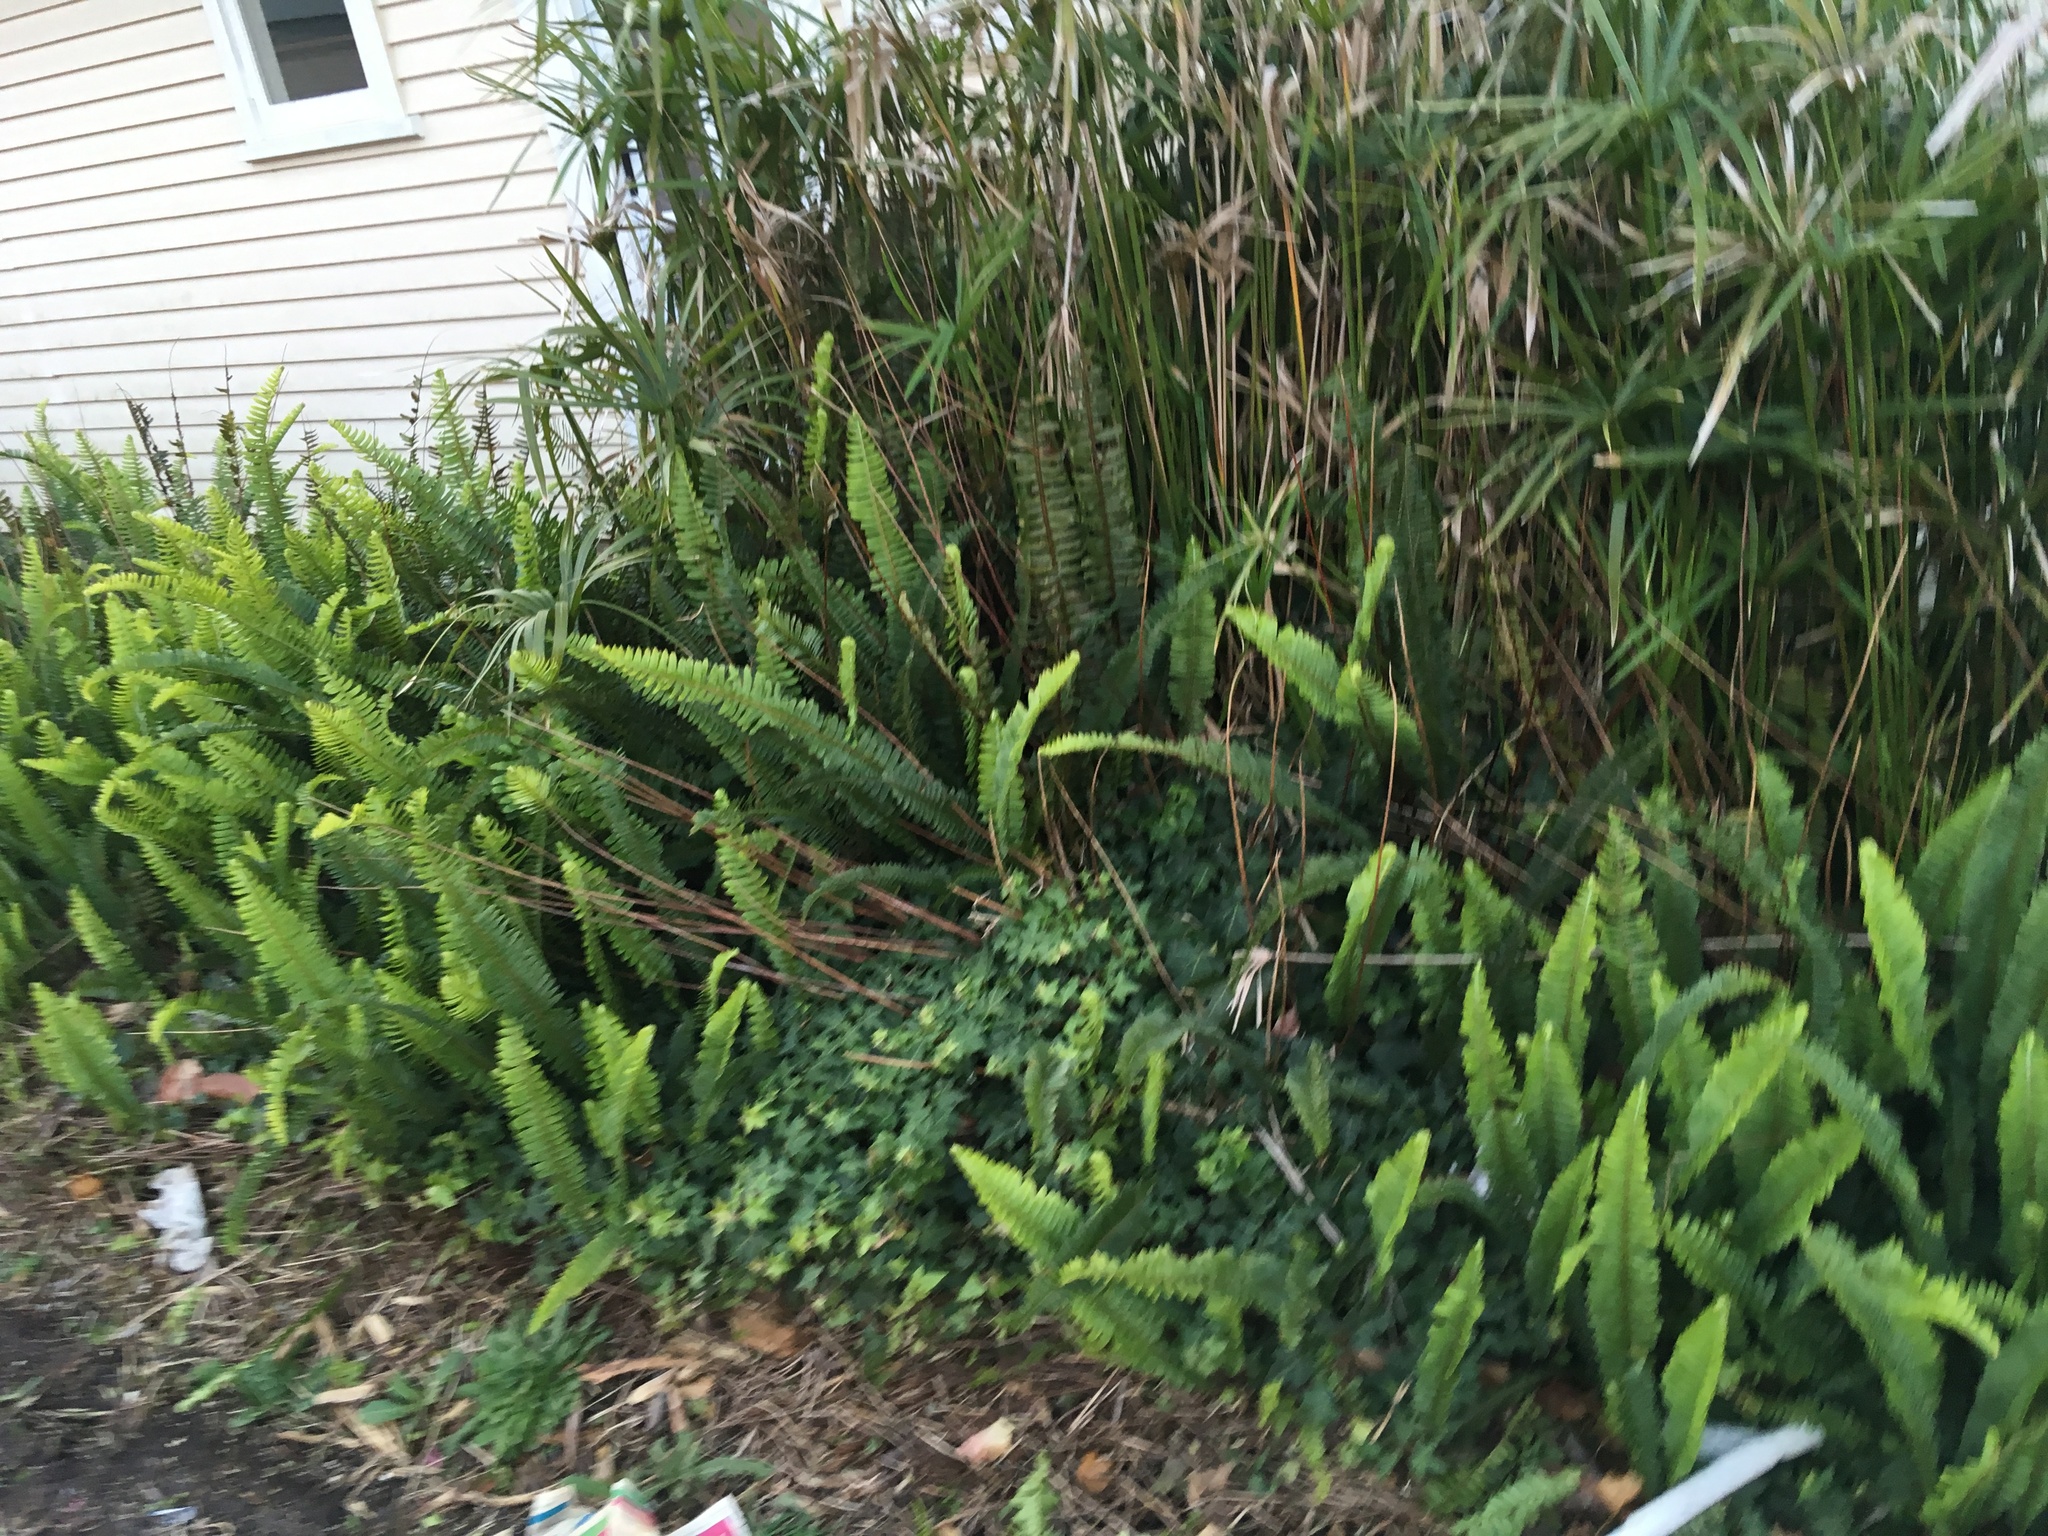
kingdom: Plantae
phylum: Tracheophyta
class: Polypodiopsida
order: Polypodiales
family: Nephrolepidaceae
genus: Nephrolepis
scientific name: Nephrolepis cordifolia
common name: Narrow swordfern
